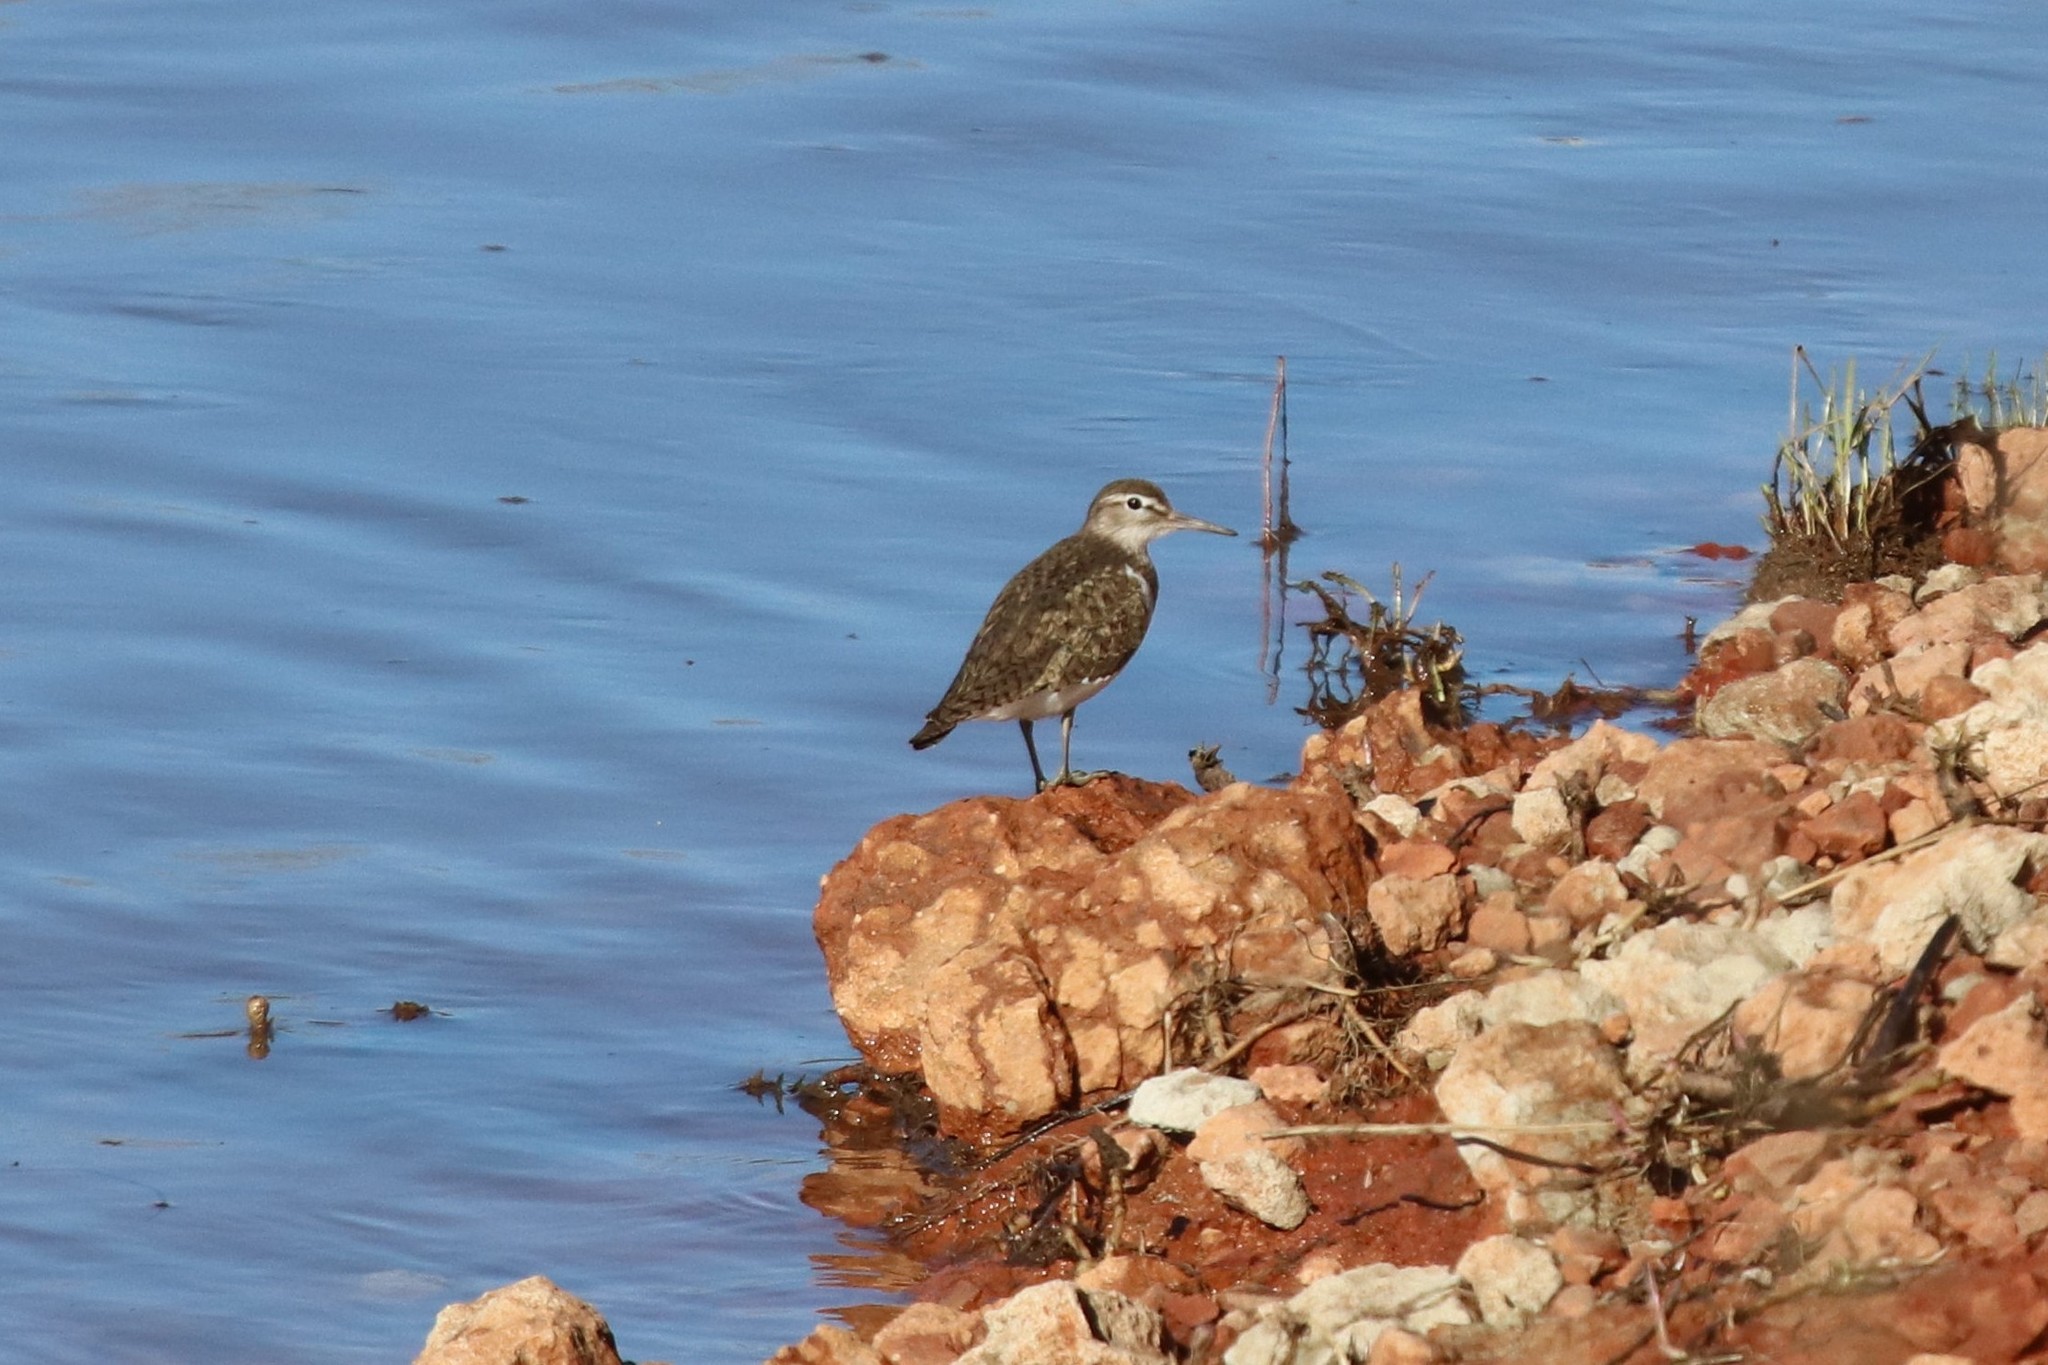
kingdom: Animalia
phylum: Chordata
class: Aves
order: Charadriiformes
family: Scolopacidae
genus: Actitis
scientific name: Actitis hypoleucos
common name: Common sandpiper
